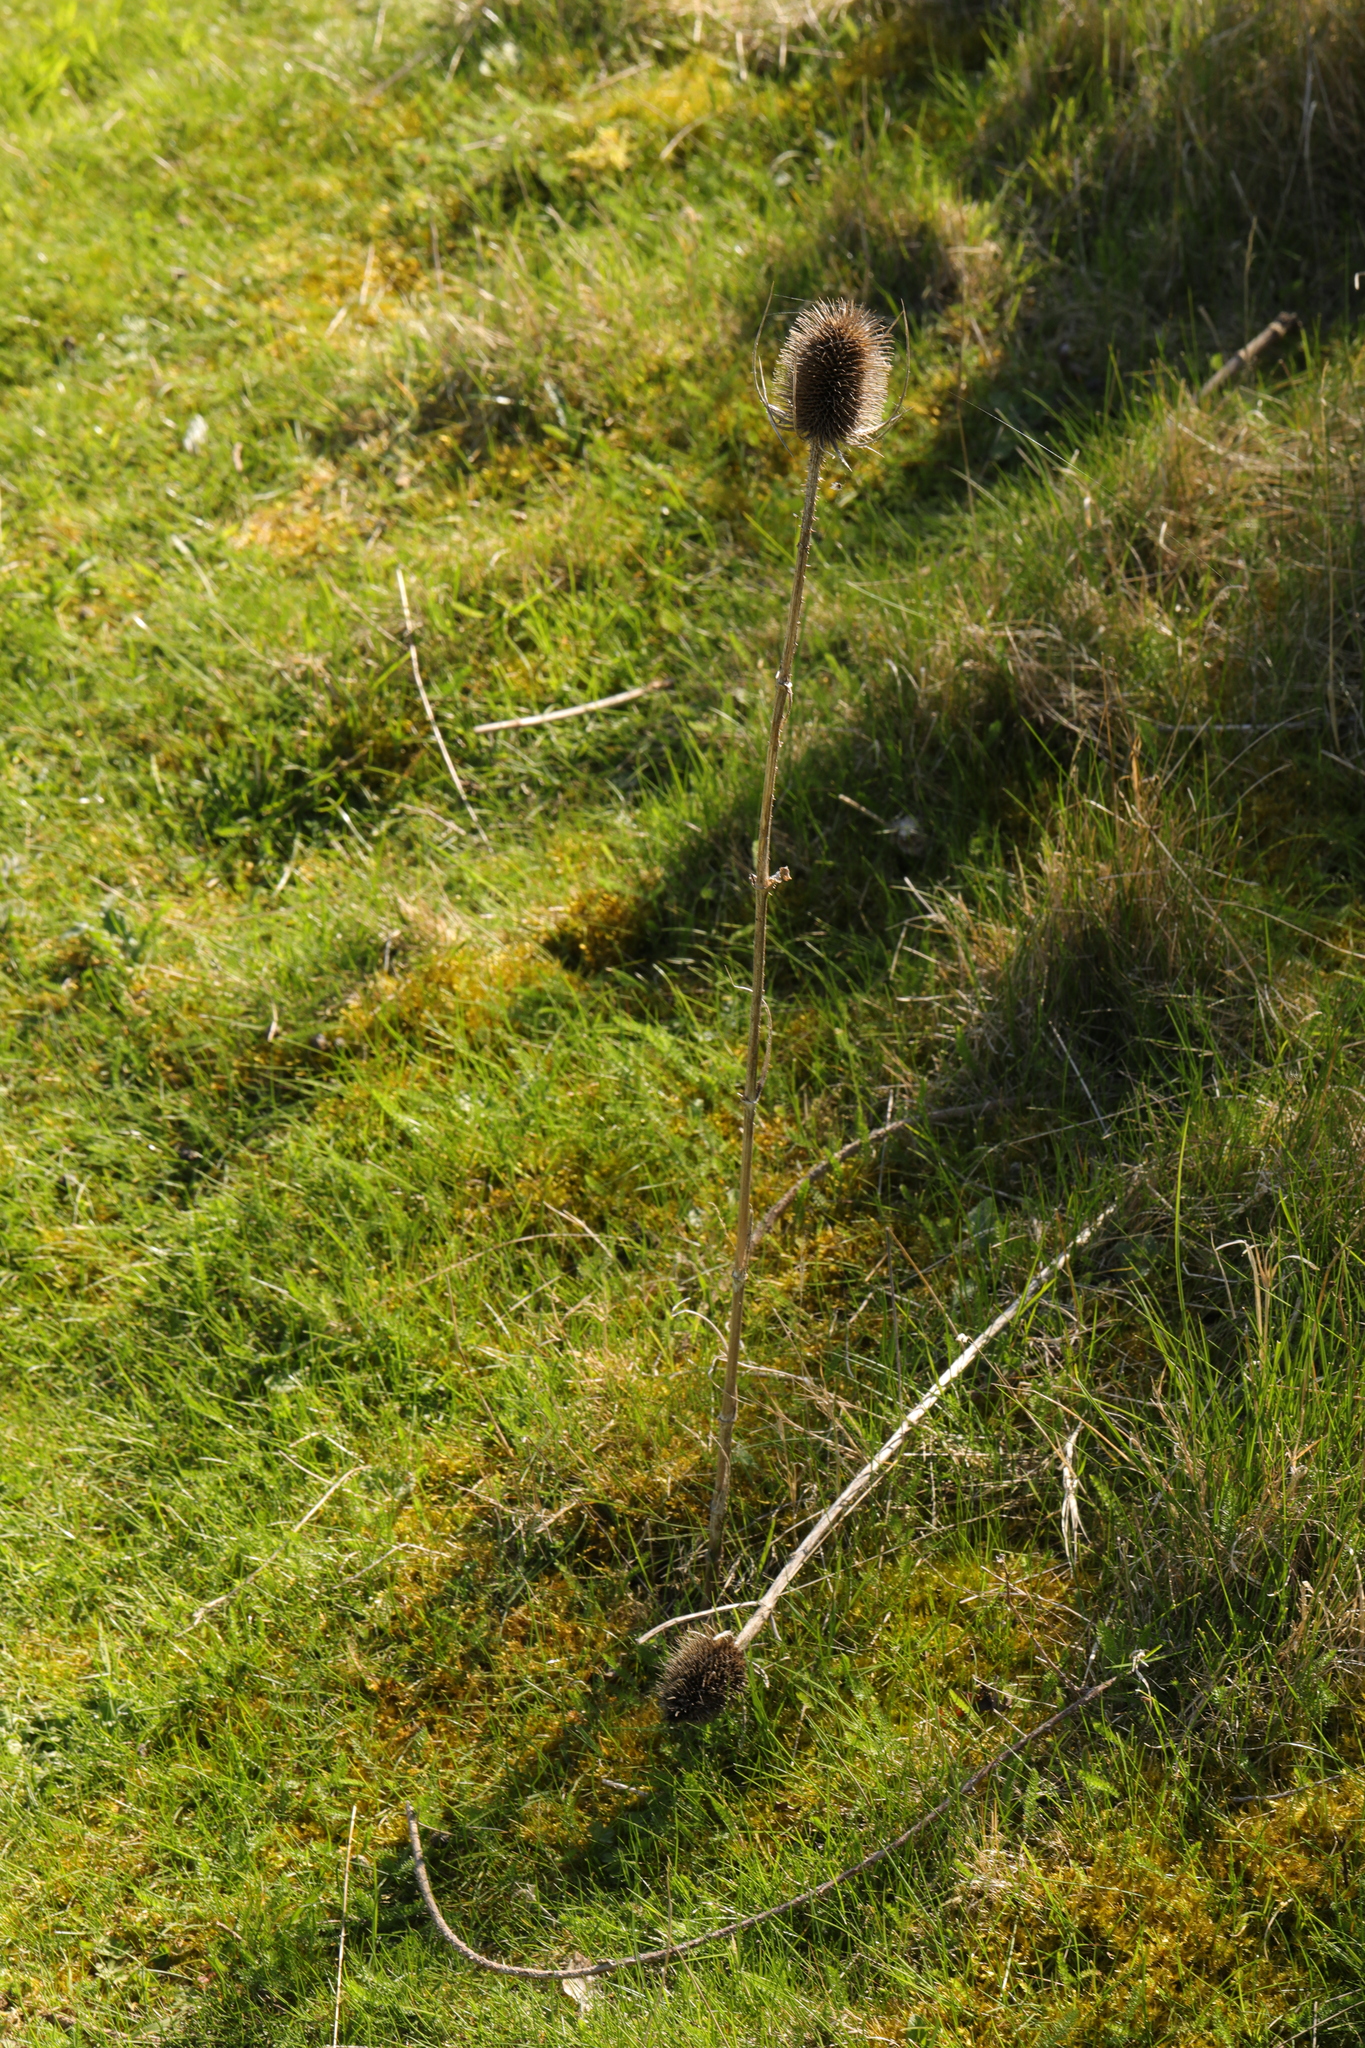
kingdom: Plantae
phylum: Tracheophyta
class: Magnoliopsida
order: Dipsacales
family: Caprifoliaceae
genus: Dipsacus
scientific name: Dipsacus fullonum
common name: Teasel
